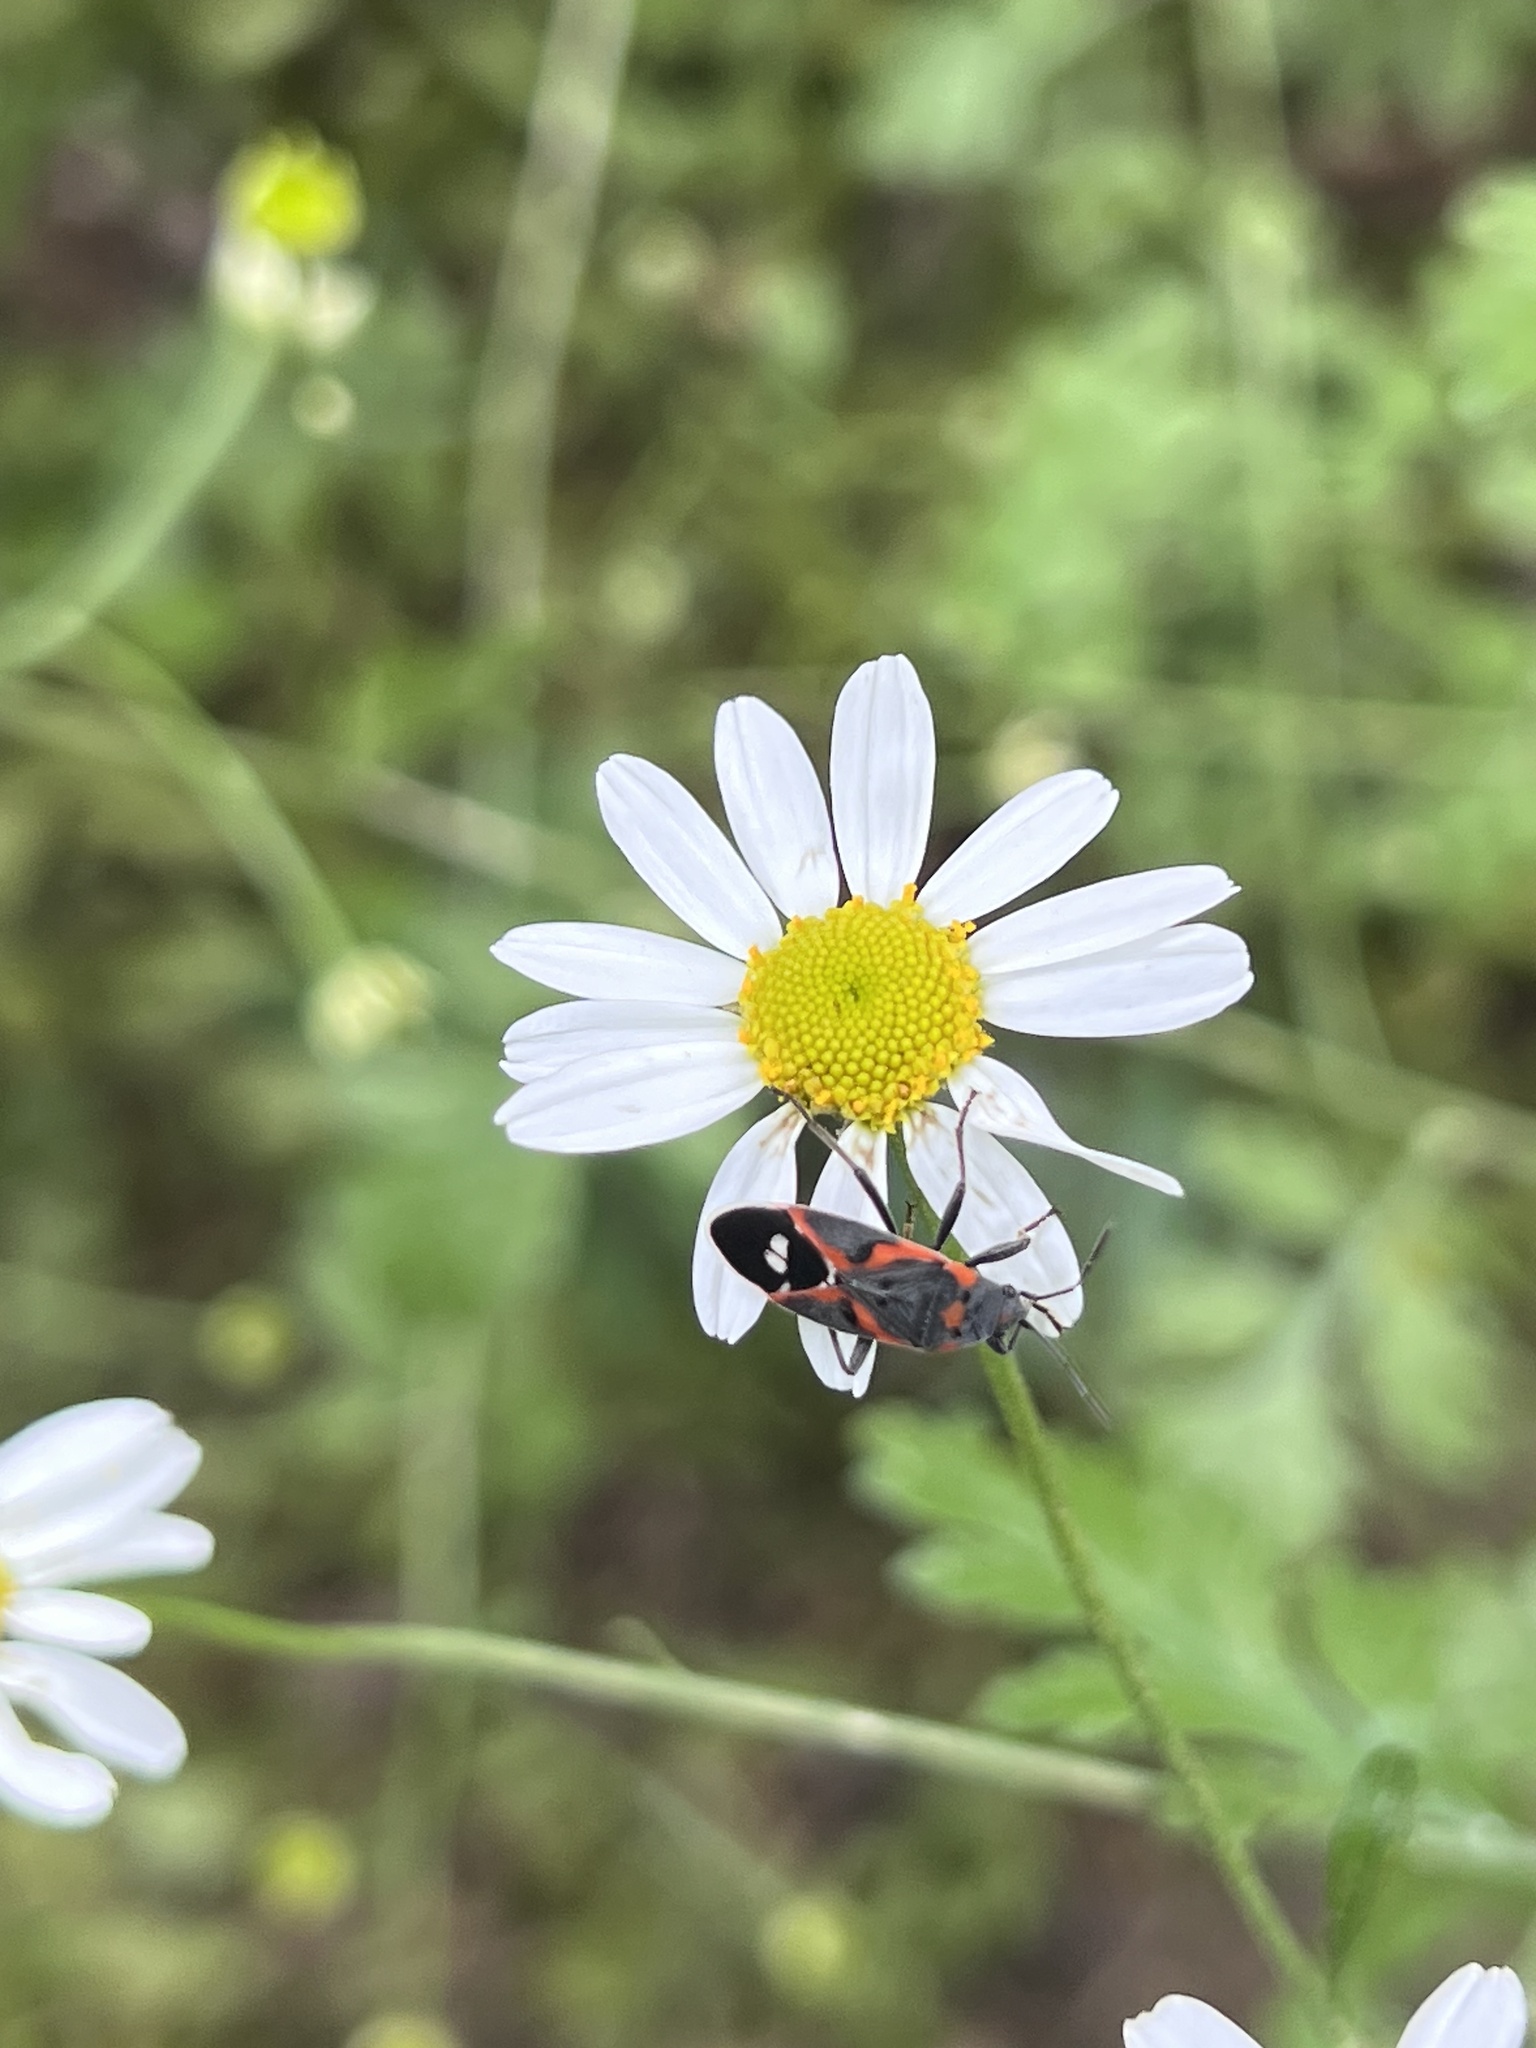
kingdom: Animalia
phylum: Arthropoda
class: Insecta
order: Hemiptera
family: Lygaeidae
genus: Lygaeus
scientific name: Lygaeus kalmii
